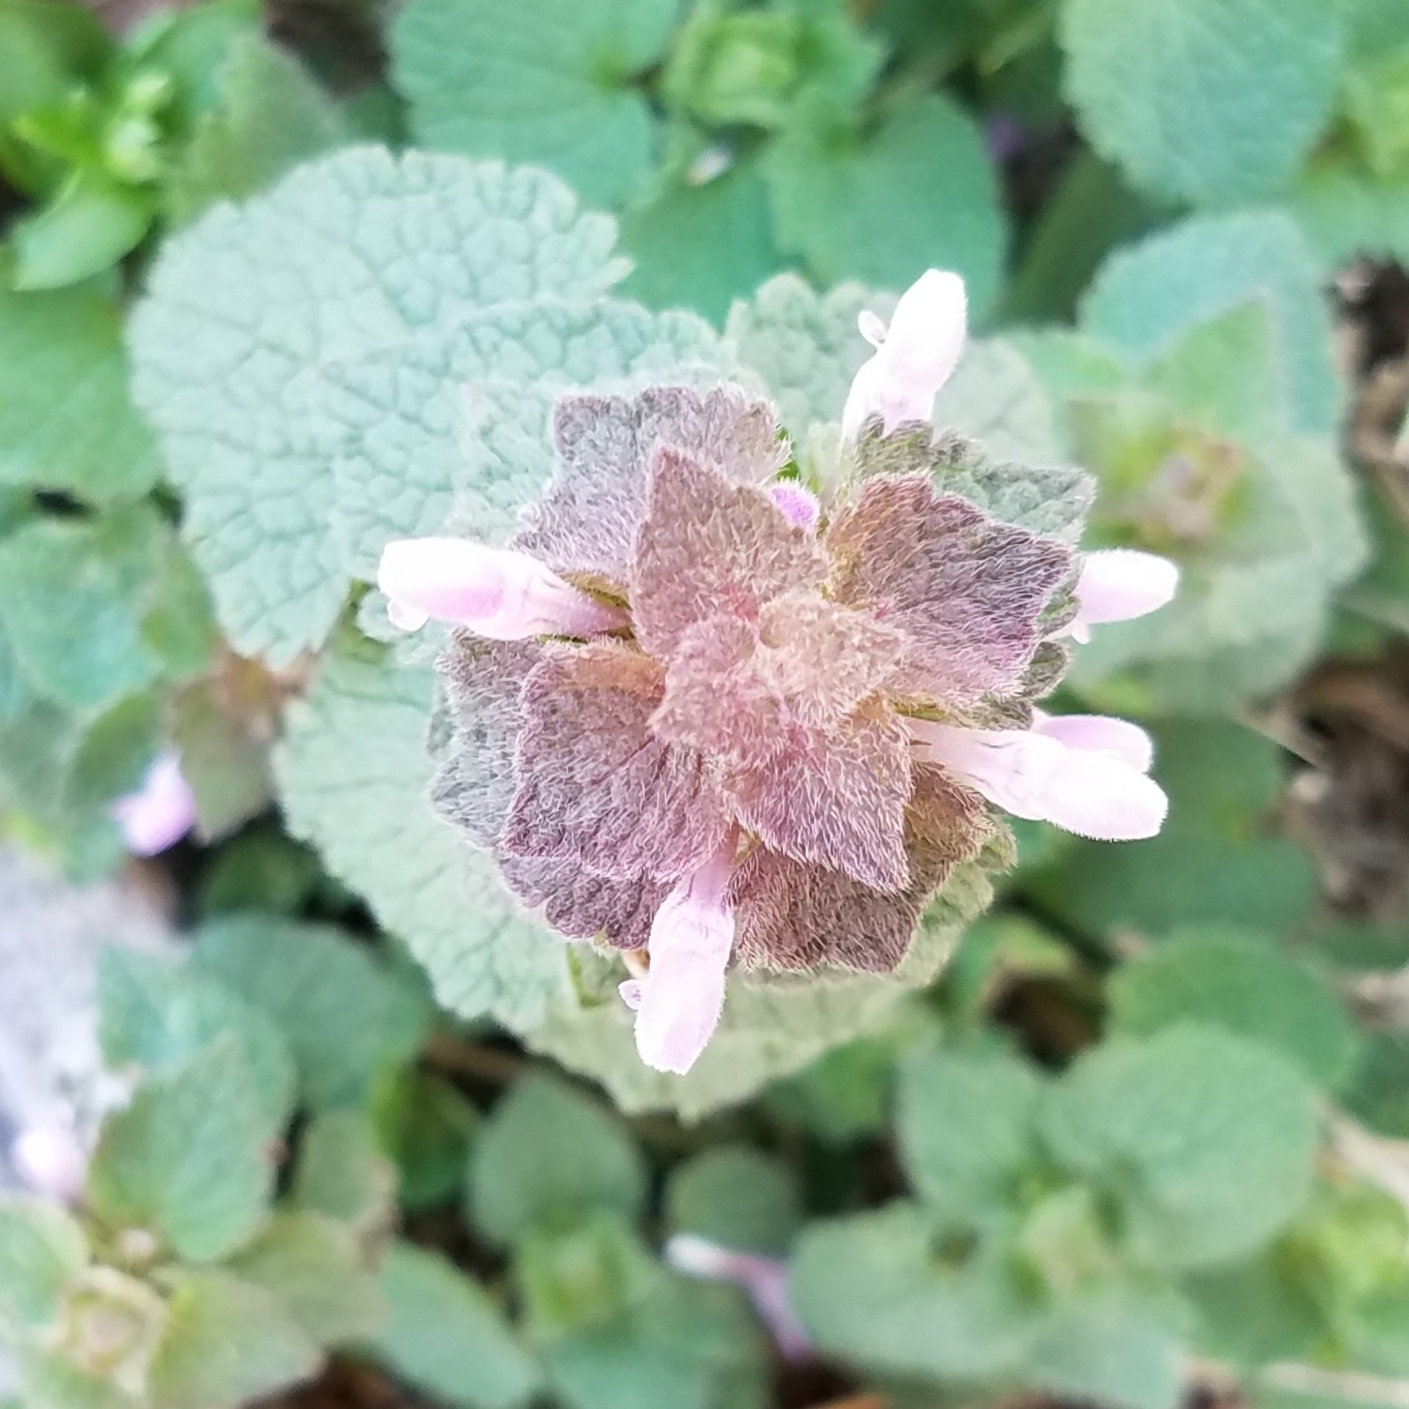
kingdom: Plantae
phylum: Tracheophyta
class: Magnoliopsida
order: Lamiales
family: Lamiaceae
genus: Lamium
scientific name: Lamium purpureum
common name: Red dead-nettle
